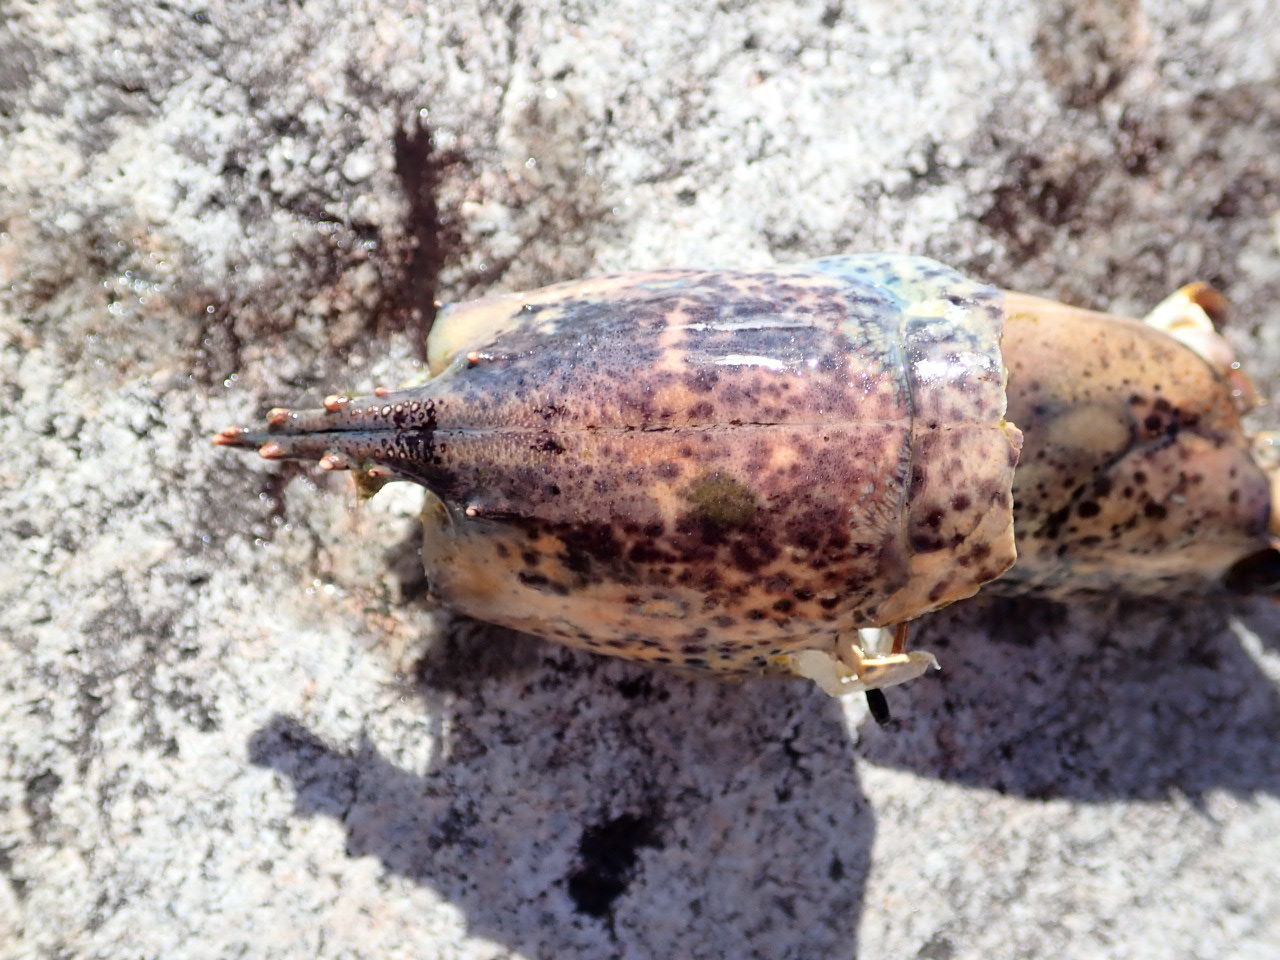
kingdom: Animalia
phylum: Arthropoda
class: Malacostraca
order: Decapoda
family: Nephropidae
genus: Homarus
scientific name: Homarus americanus
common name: American lobster
